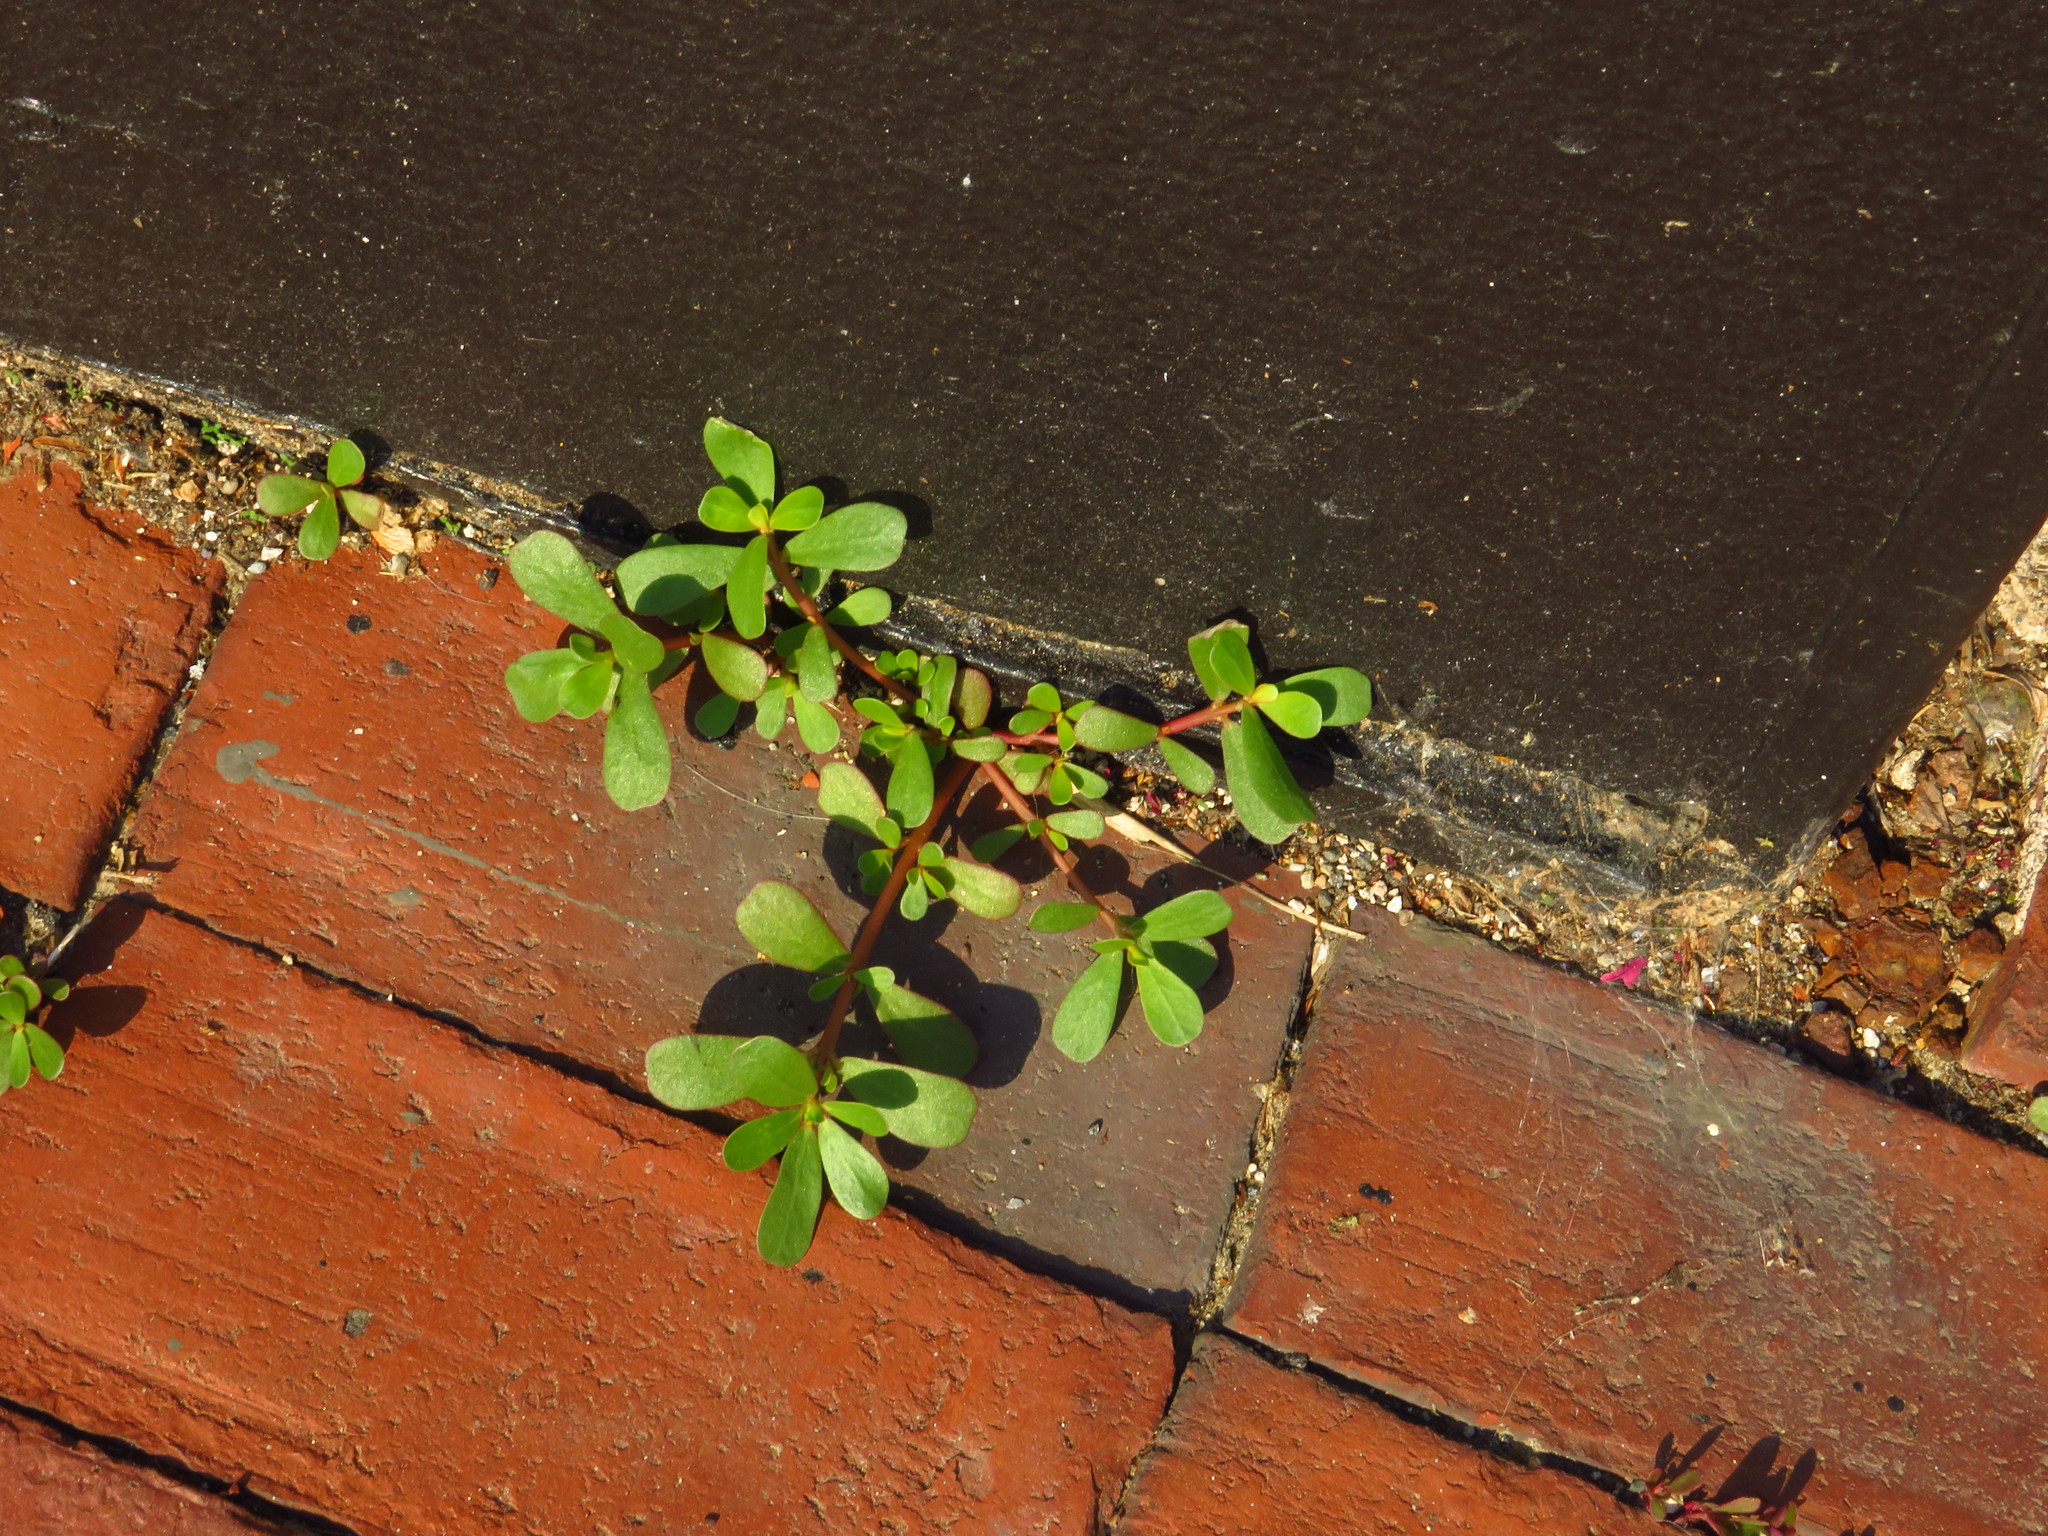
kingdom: Plantae
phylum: Tracheophyta
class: Magnoliopsida
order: Caryophyllales
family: Portulacaceae
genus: Portulaca
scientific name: Portulaca oleracea
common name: Common purslane
